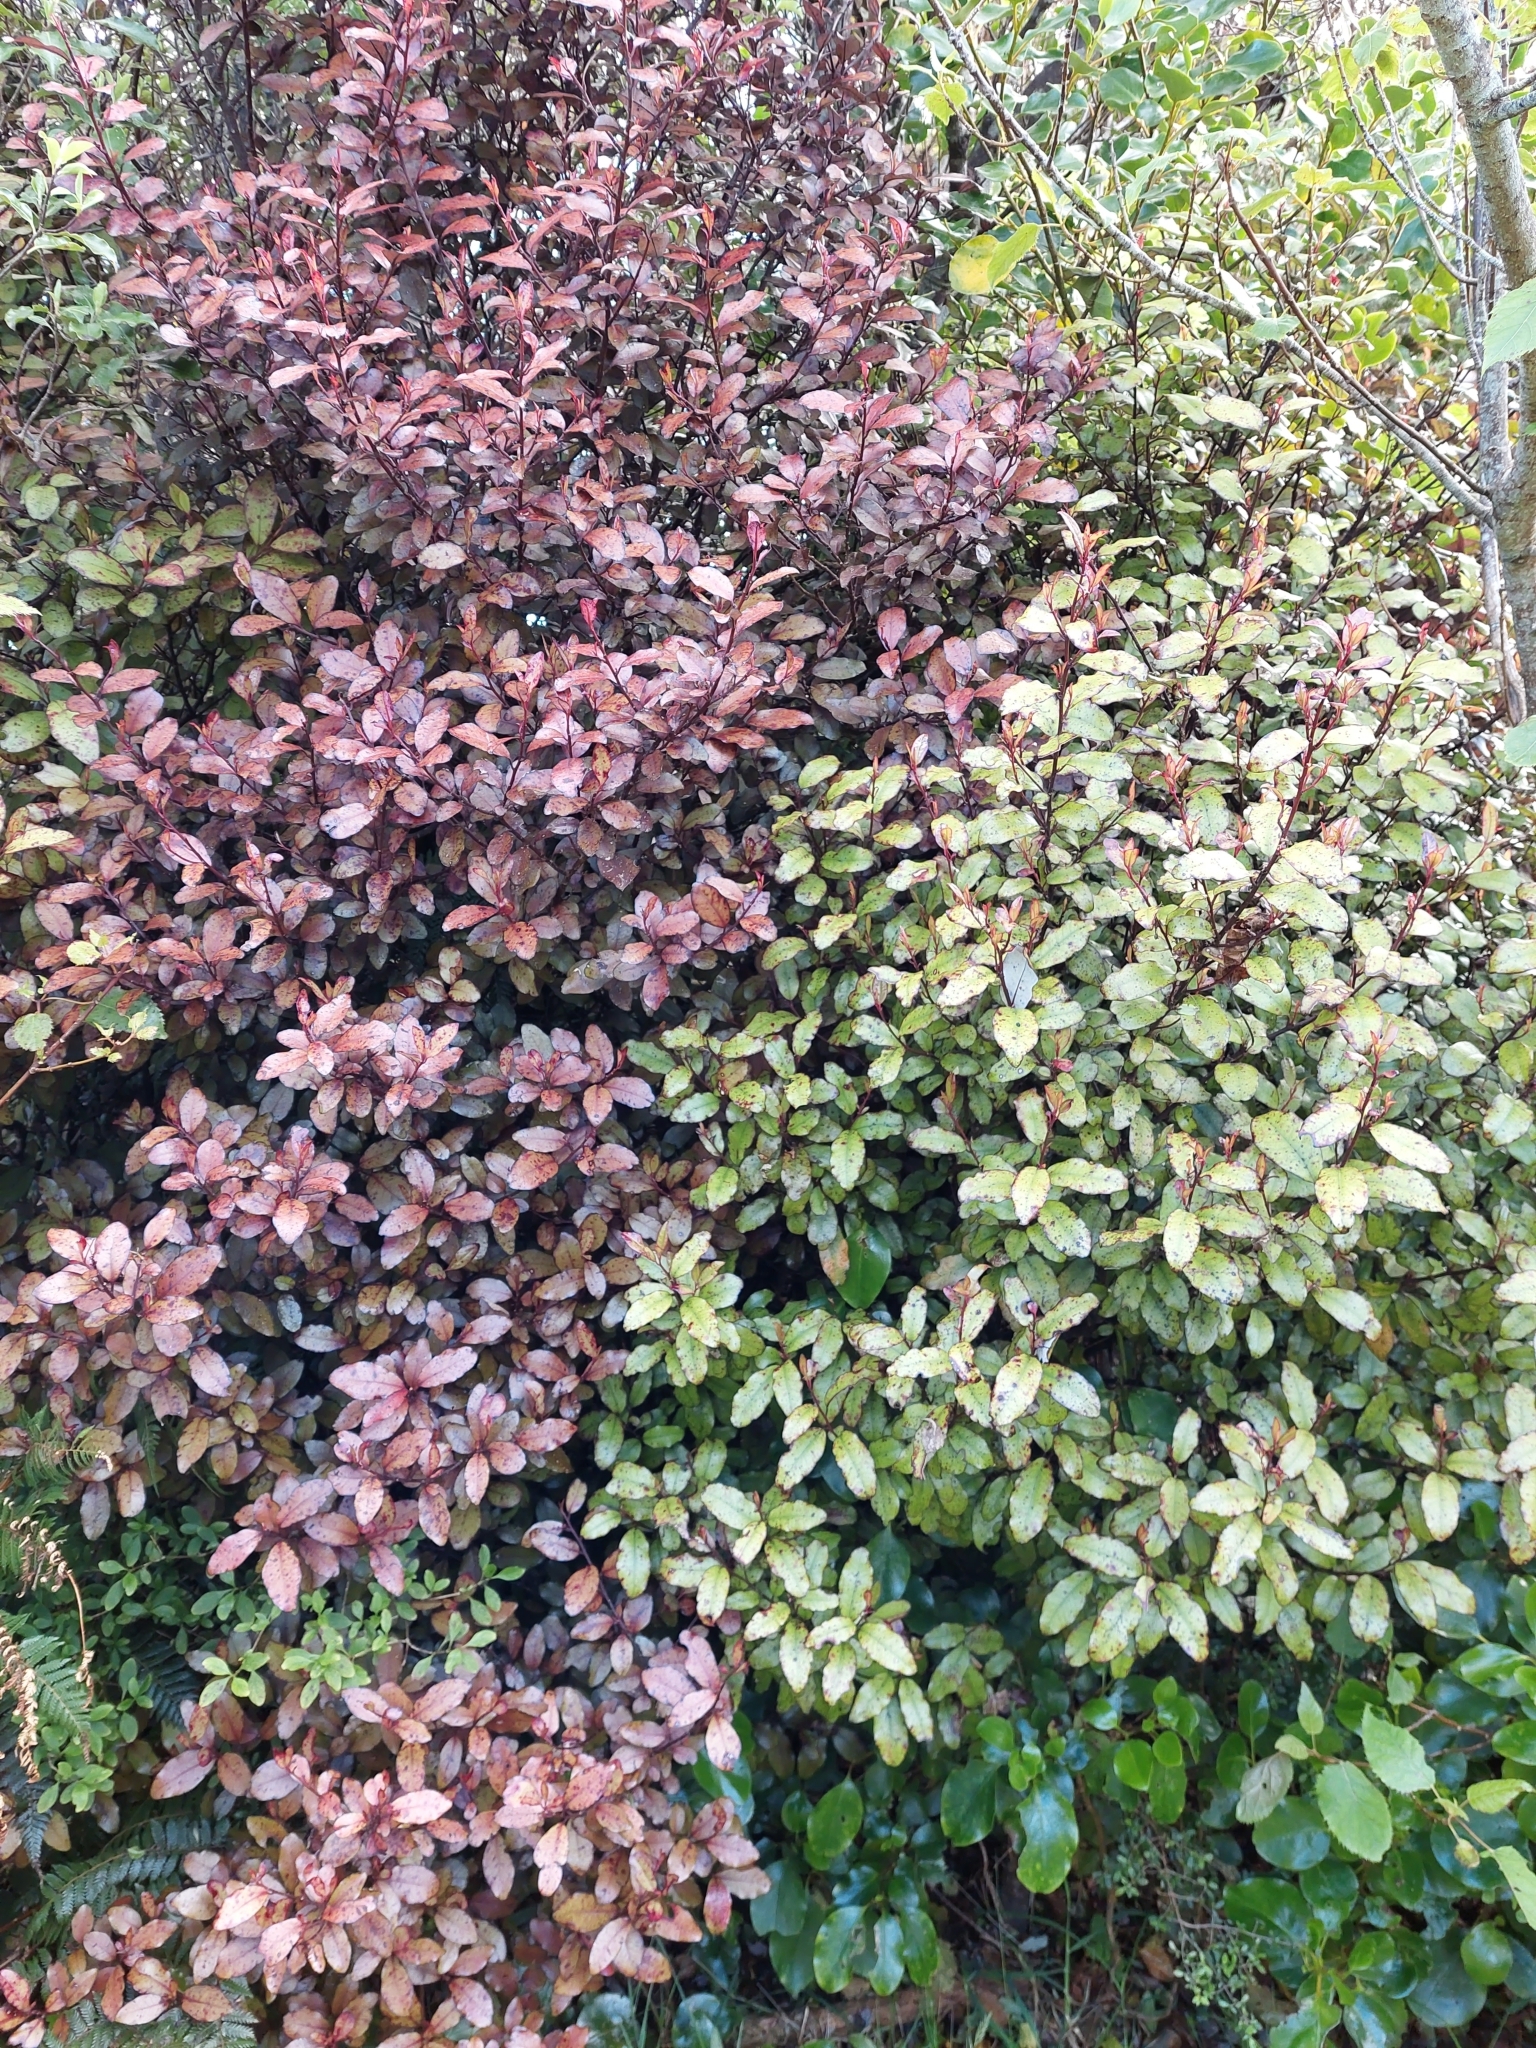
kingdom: Plantae
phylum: Tracheophyta
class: Magnoliopsida
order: Canellales
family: Winteraceae
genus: Pseudowintera
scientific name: Pseudowintera colorata
